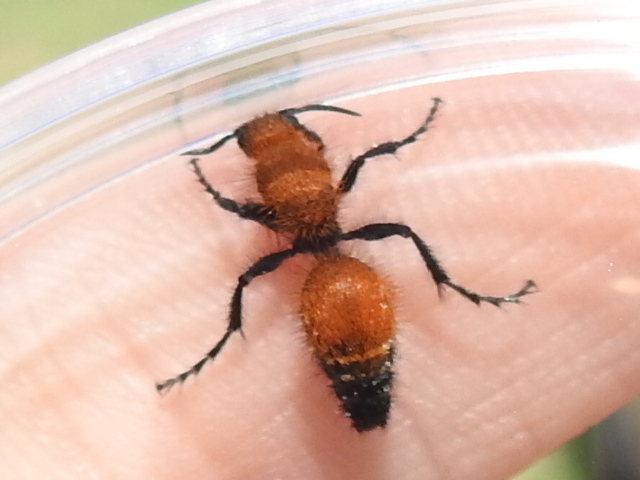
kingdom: Animalia
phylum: Arthropoda
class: Insecta
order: Hymenoptera
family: Mutillidae
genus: Dasymutilla
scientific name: Dasymutilla
